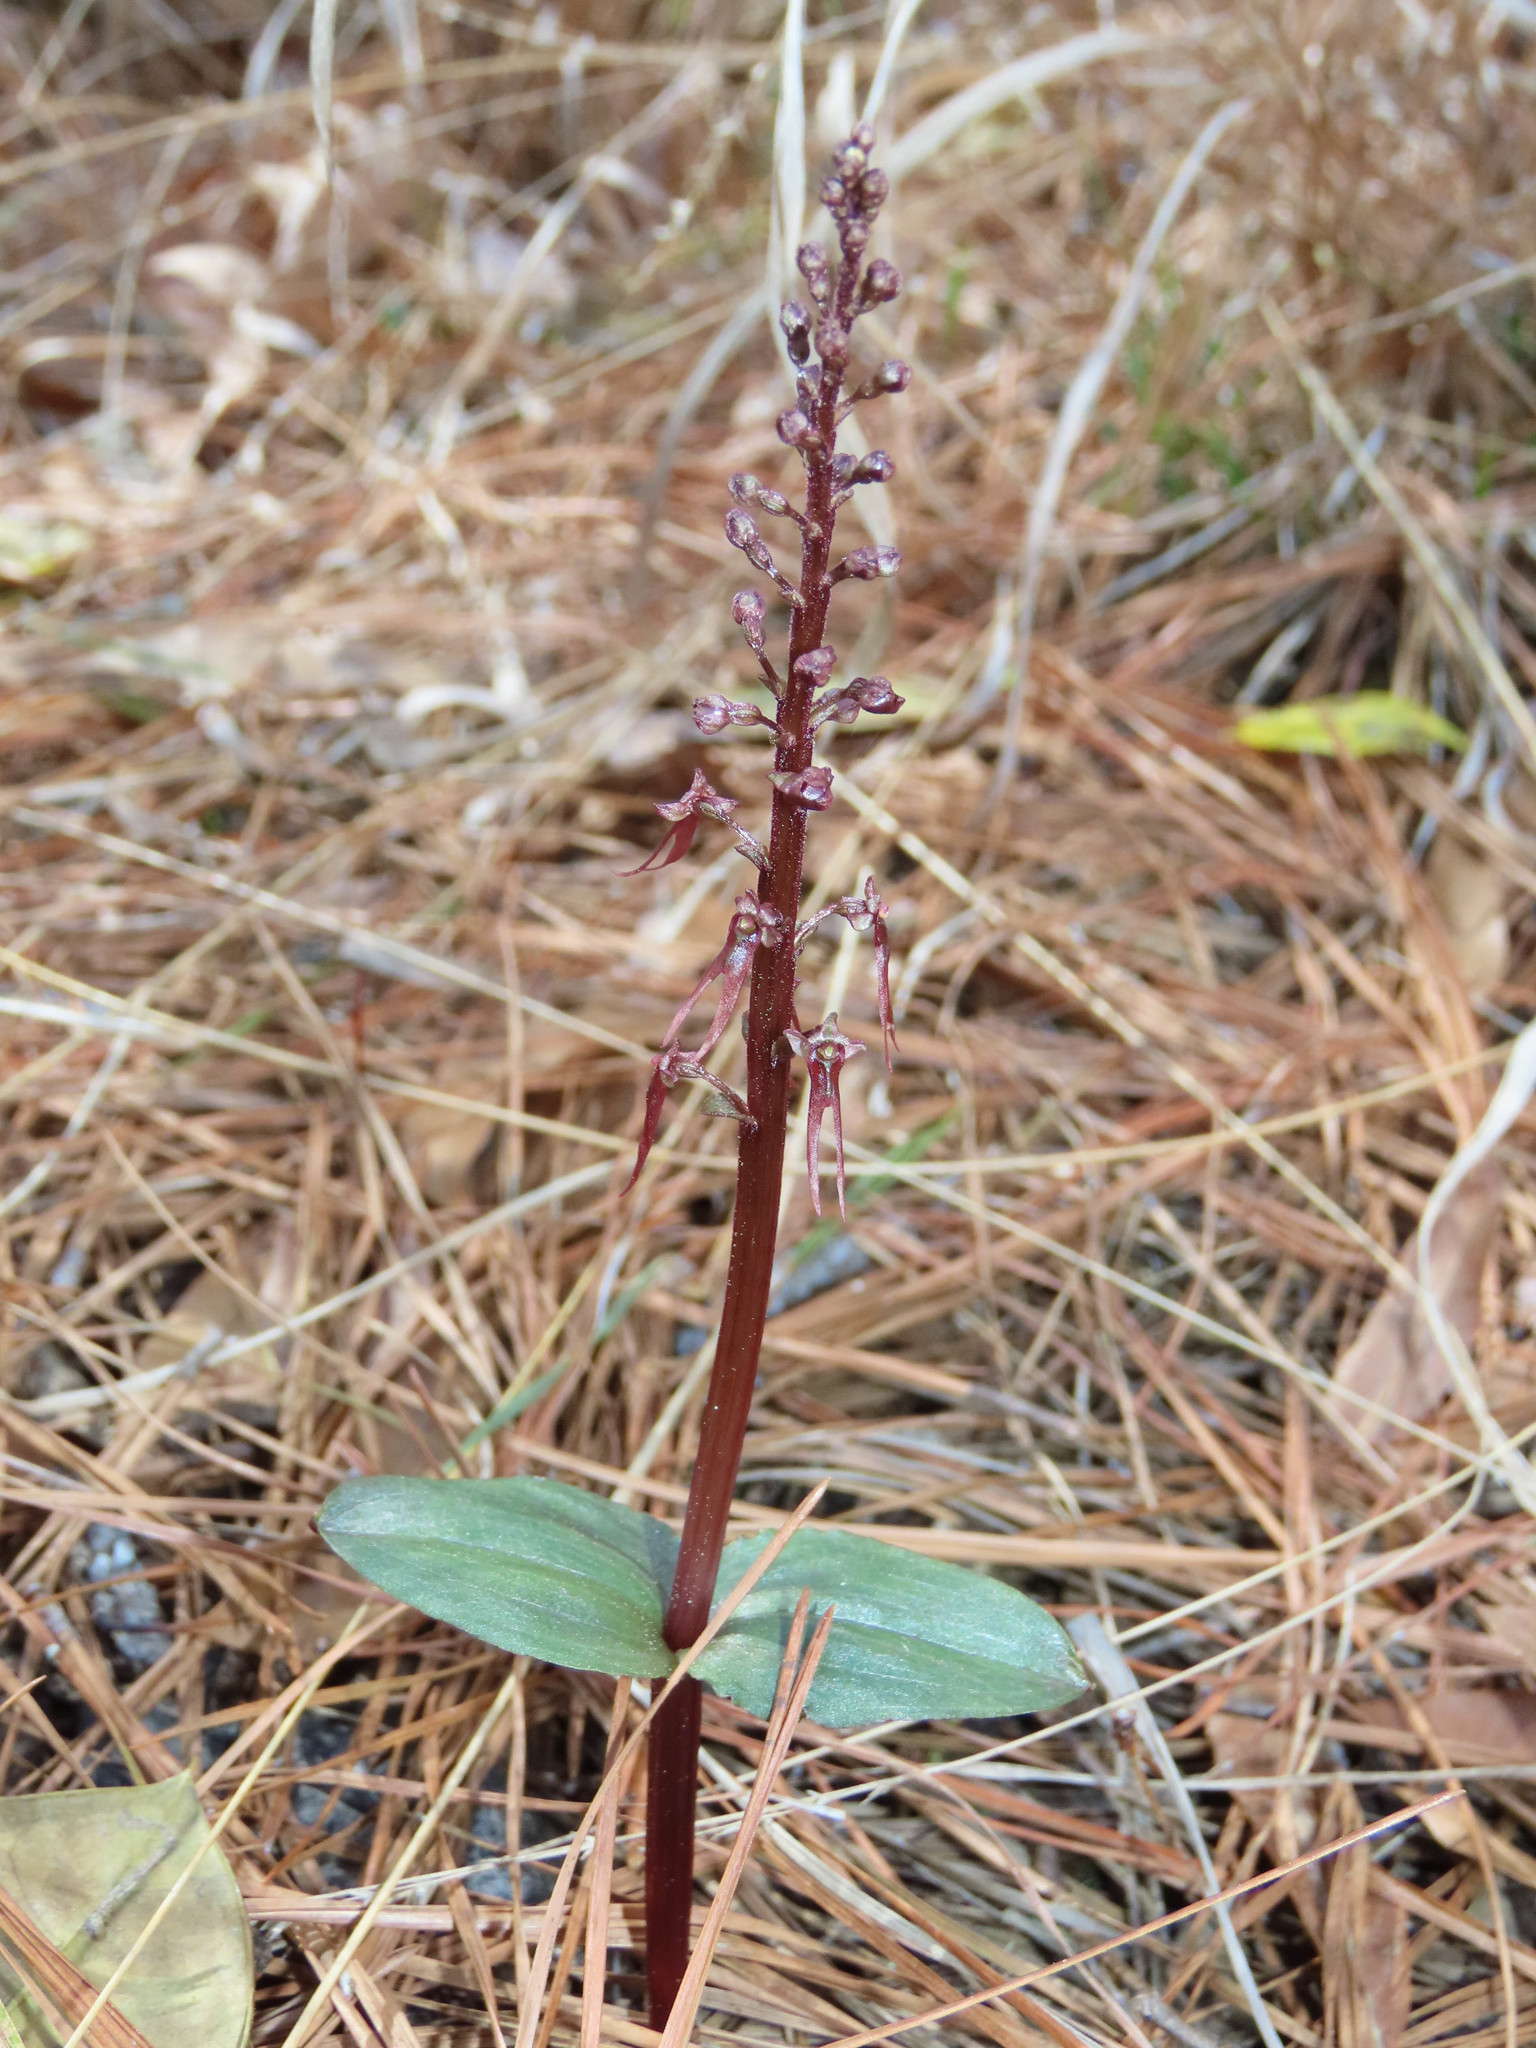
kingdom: Plantae
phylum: Tracheophyta
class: Liliopsida
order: Asparagales
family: Orchidaceae
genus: Neottia
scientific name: Neottia bifolia
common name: Southern twayblade
